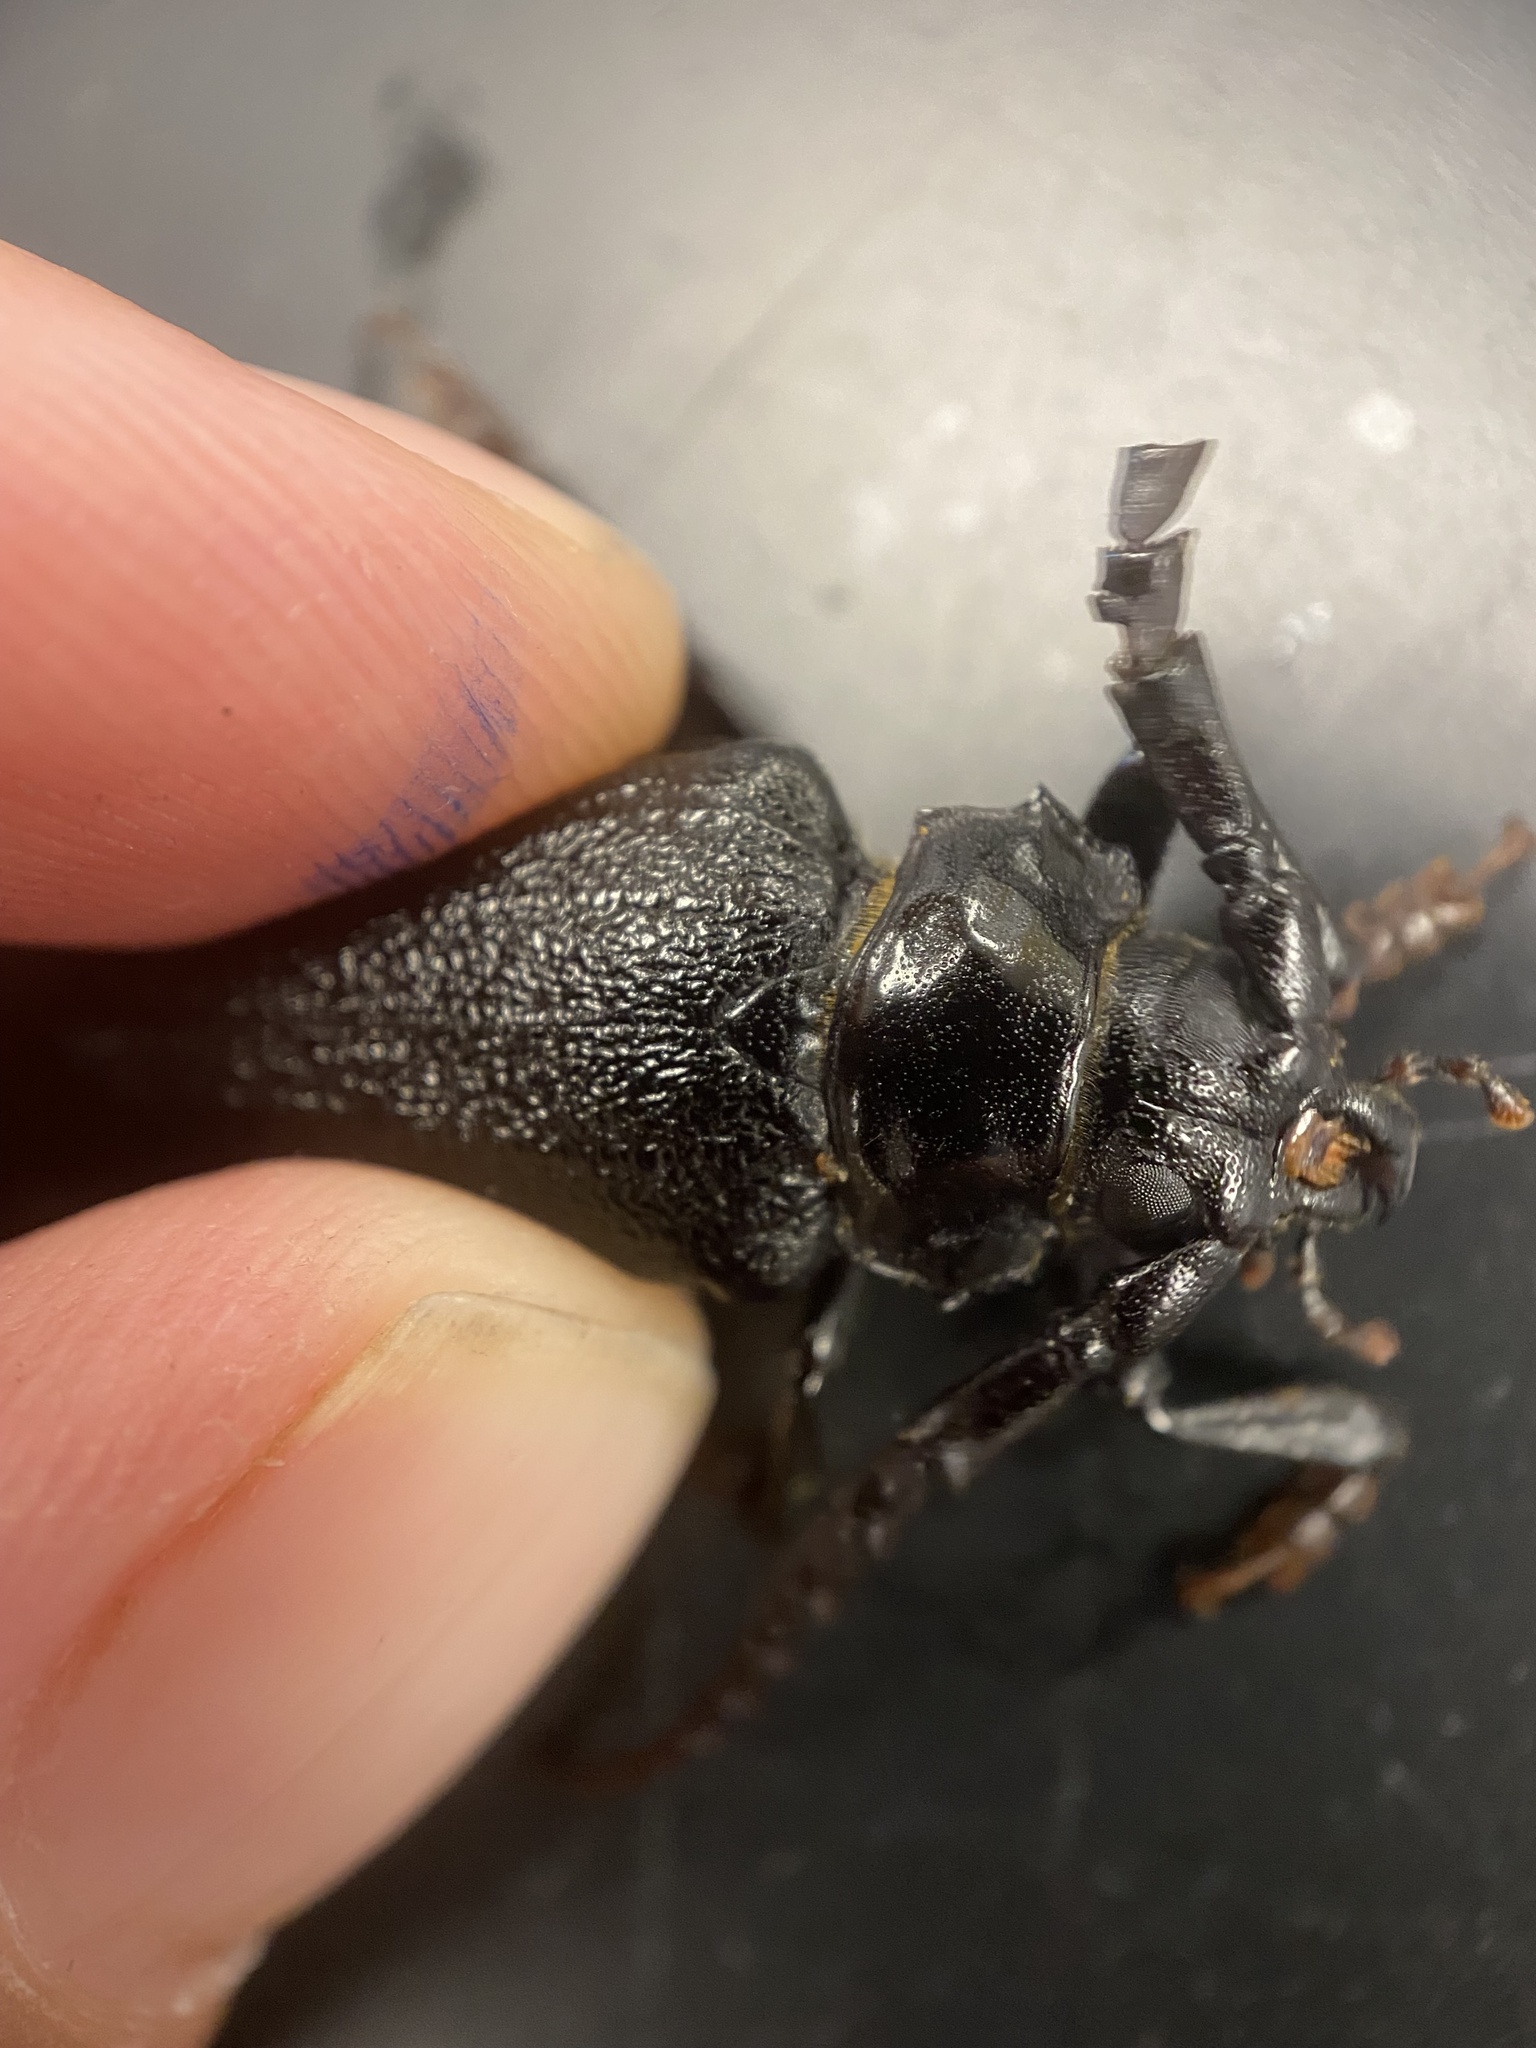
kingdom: Animalia
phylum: Arthropoda
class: Insecta
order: Coleoptera
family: Cerambycidae
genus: Prionus
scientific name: Prionus laticollis
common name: Broad necked prionus
